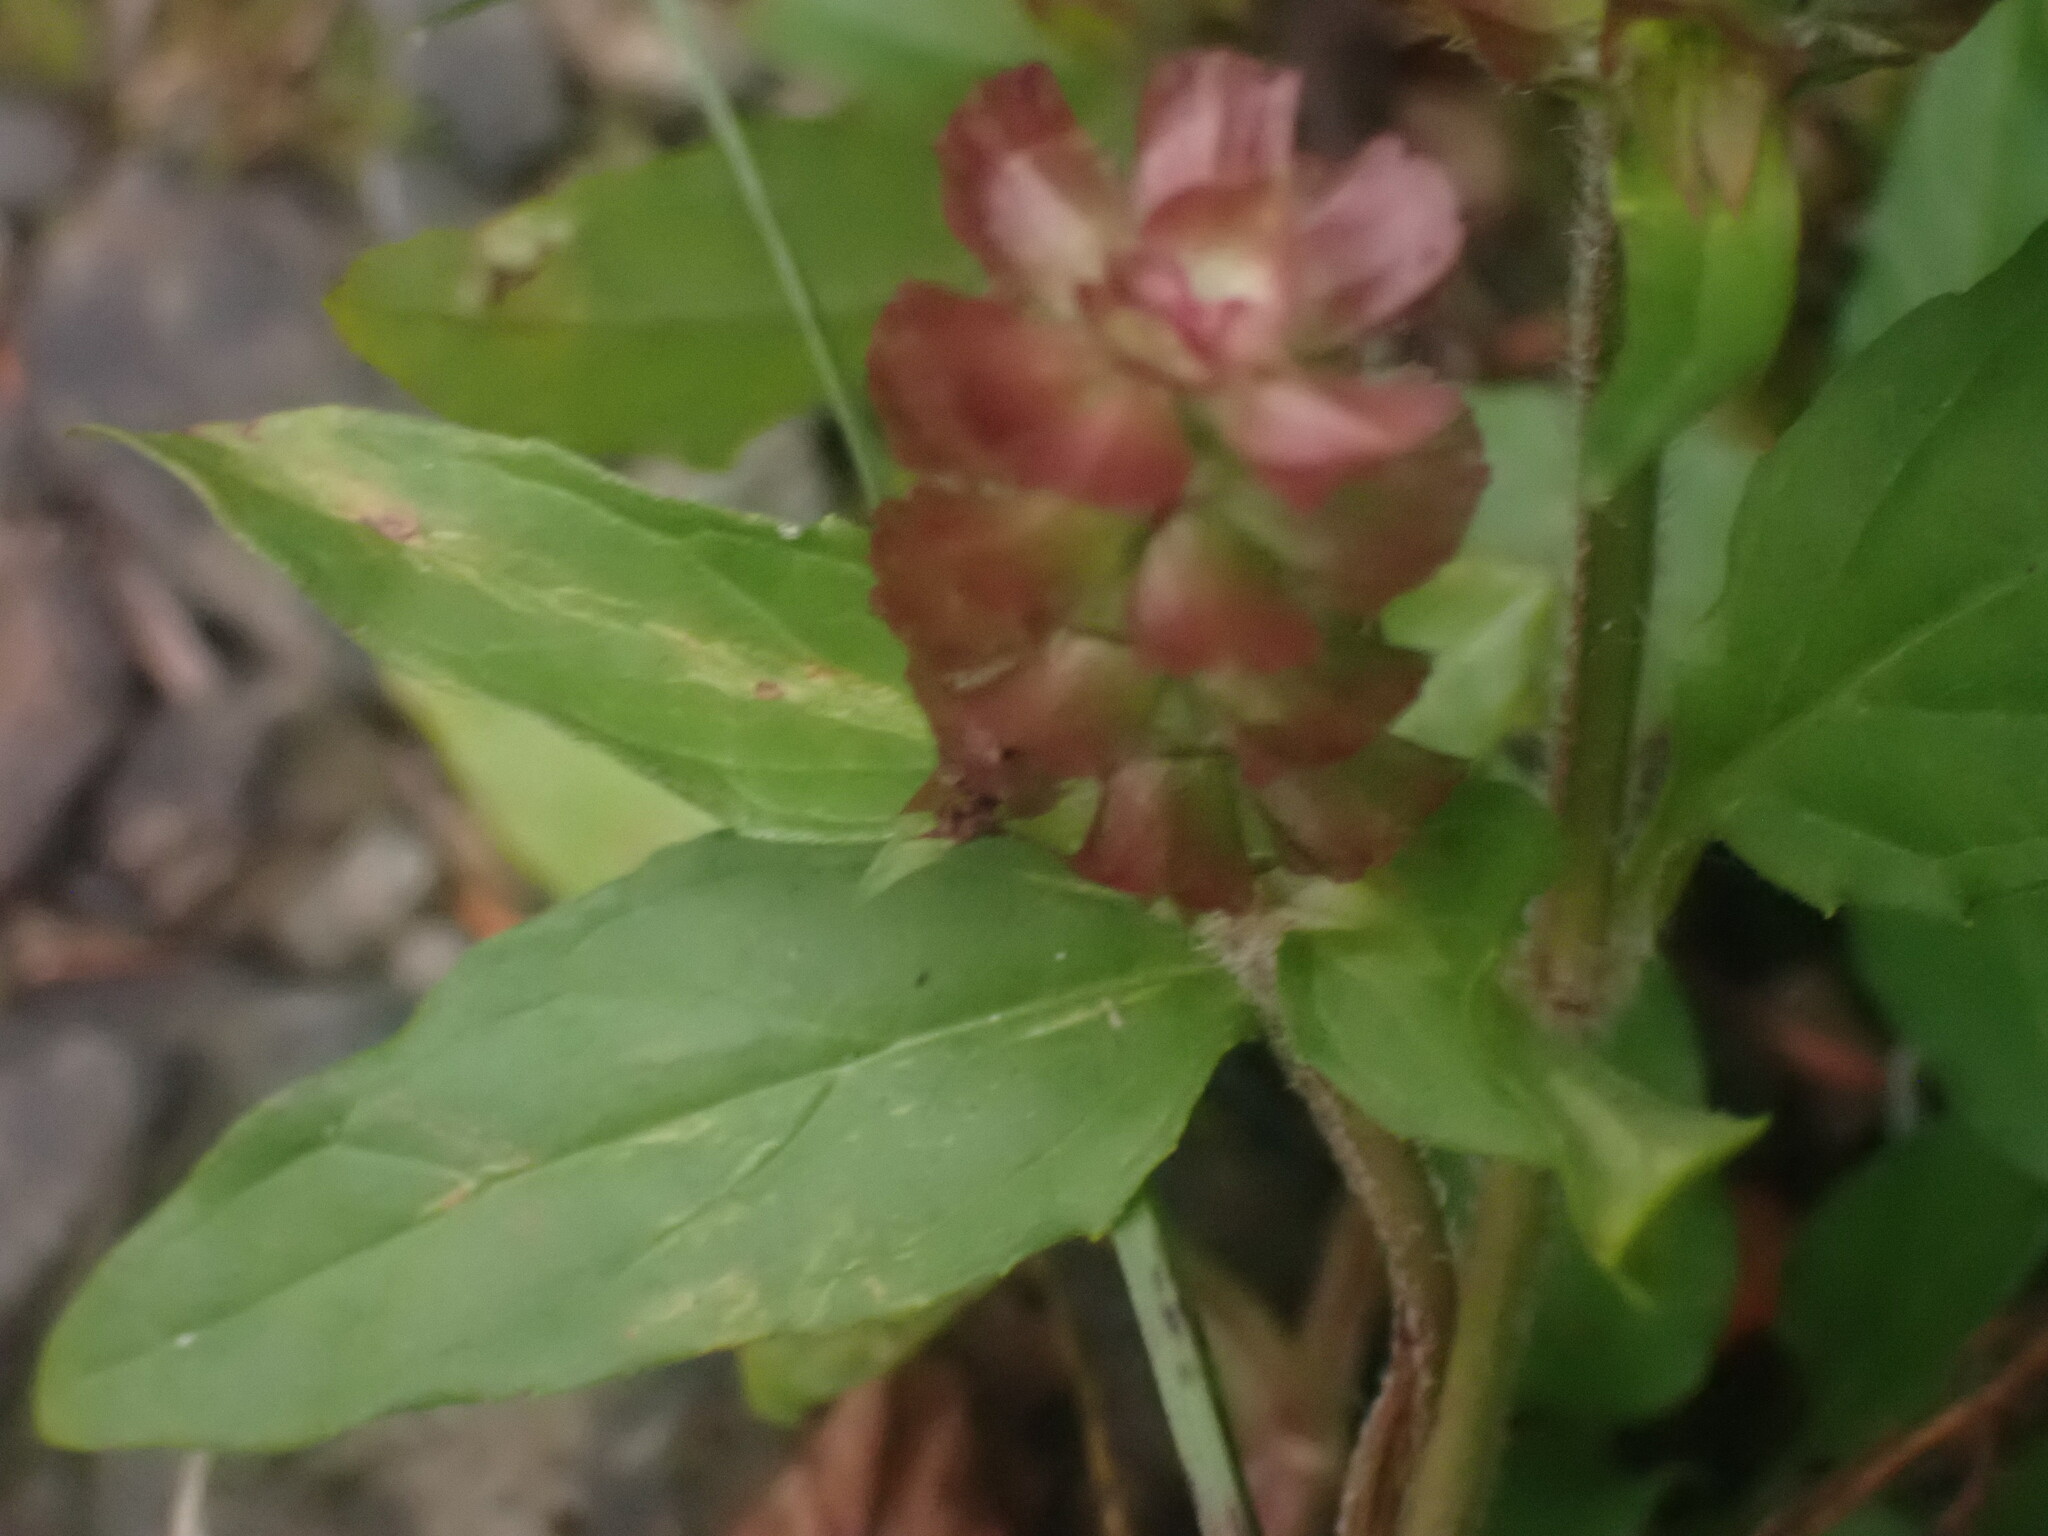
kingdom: Plantae
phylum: Tracheophyta
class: Magnoliopsida
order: Lamiales
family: Lamiaceae
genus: Prunella
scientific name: Prunella vulgaris
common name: Heal-all
